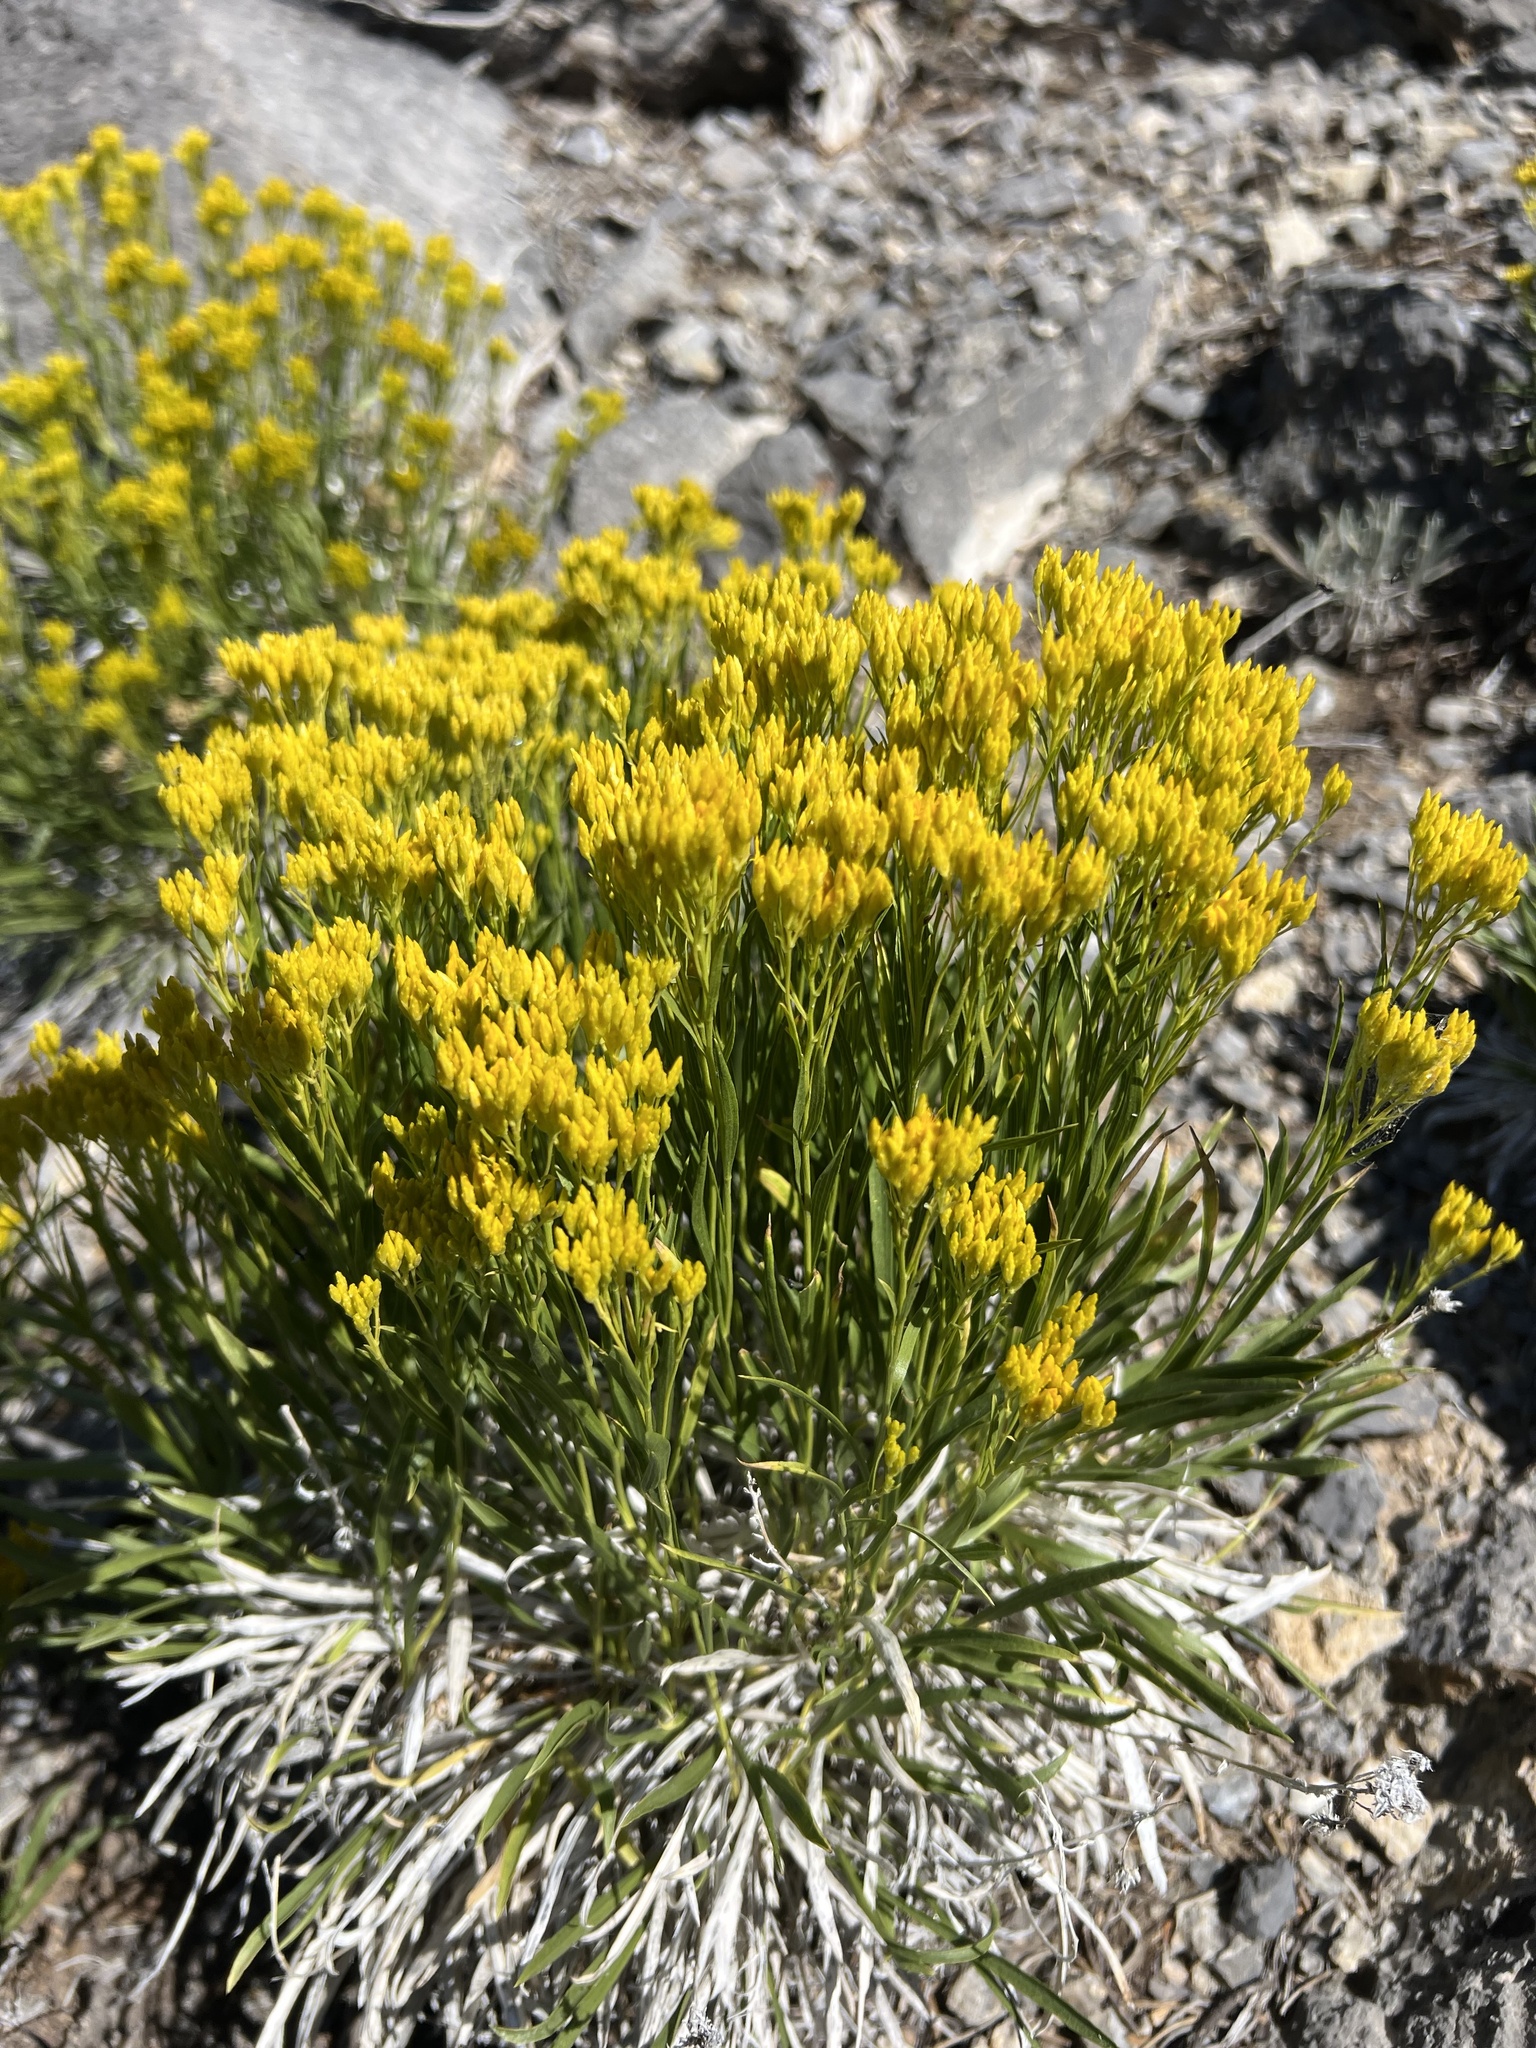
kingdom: Plantae
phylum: Tracheophyta
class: Magnoliopsida
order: Asterales
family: Asteraceae
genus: Petradoria
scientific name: Petradoria pumila
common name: Rock-goldenrod
